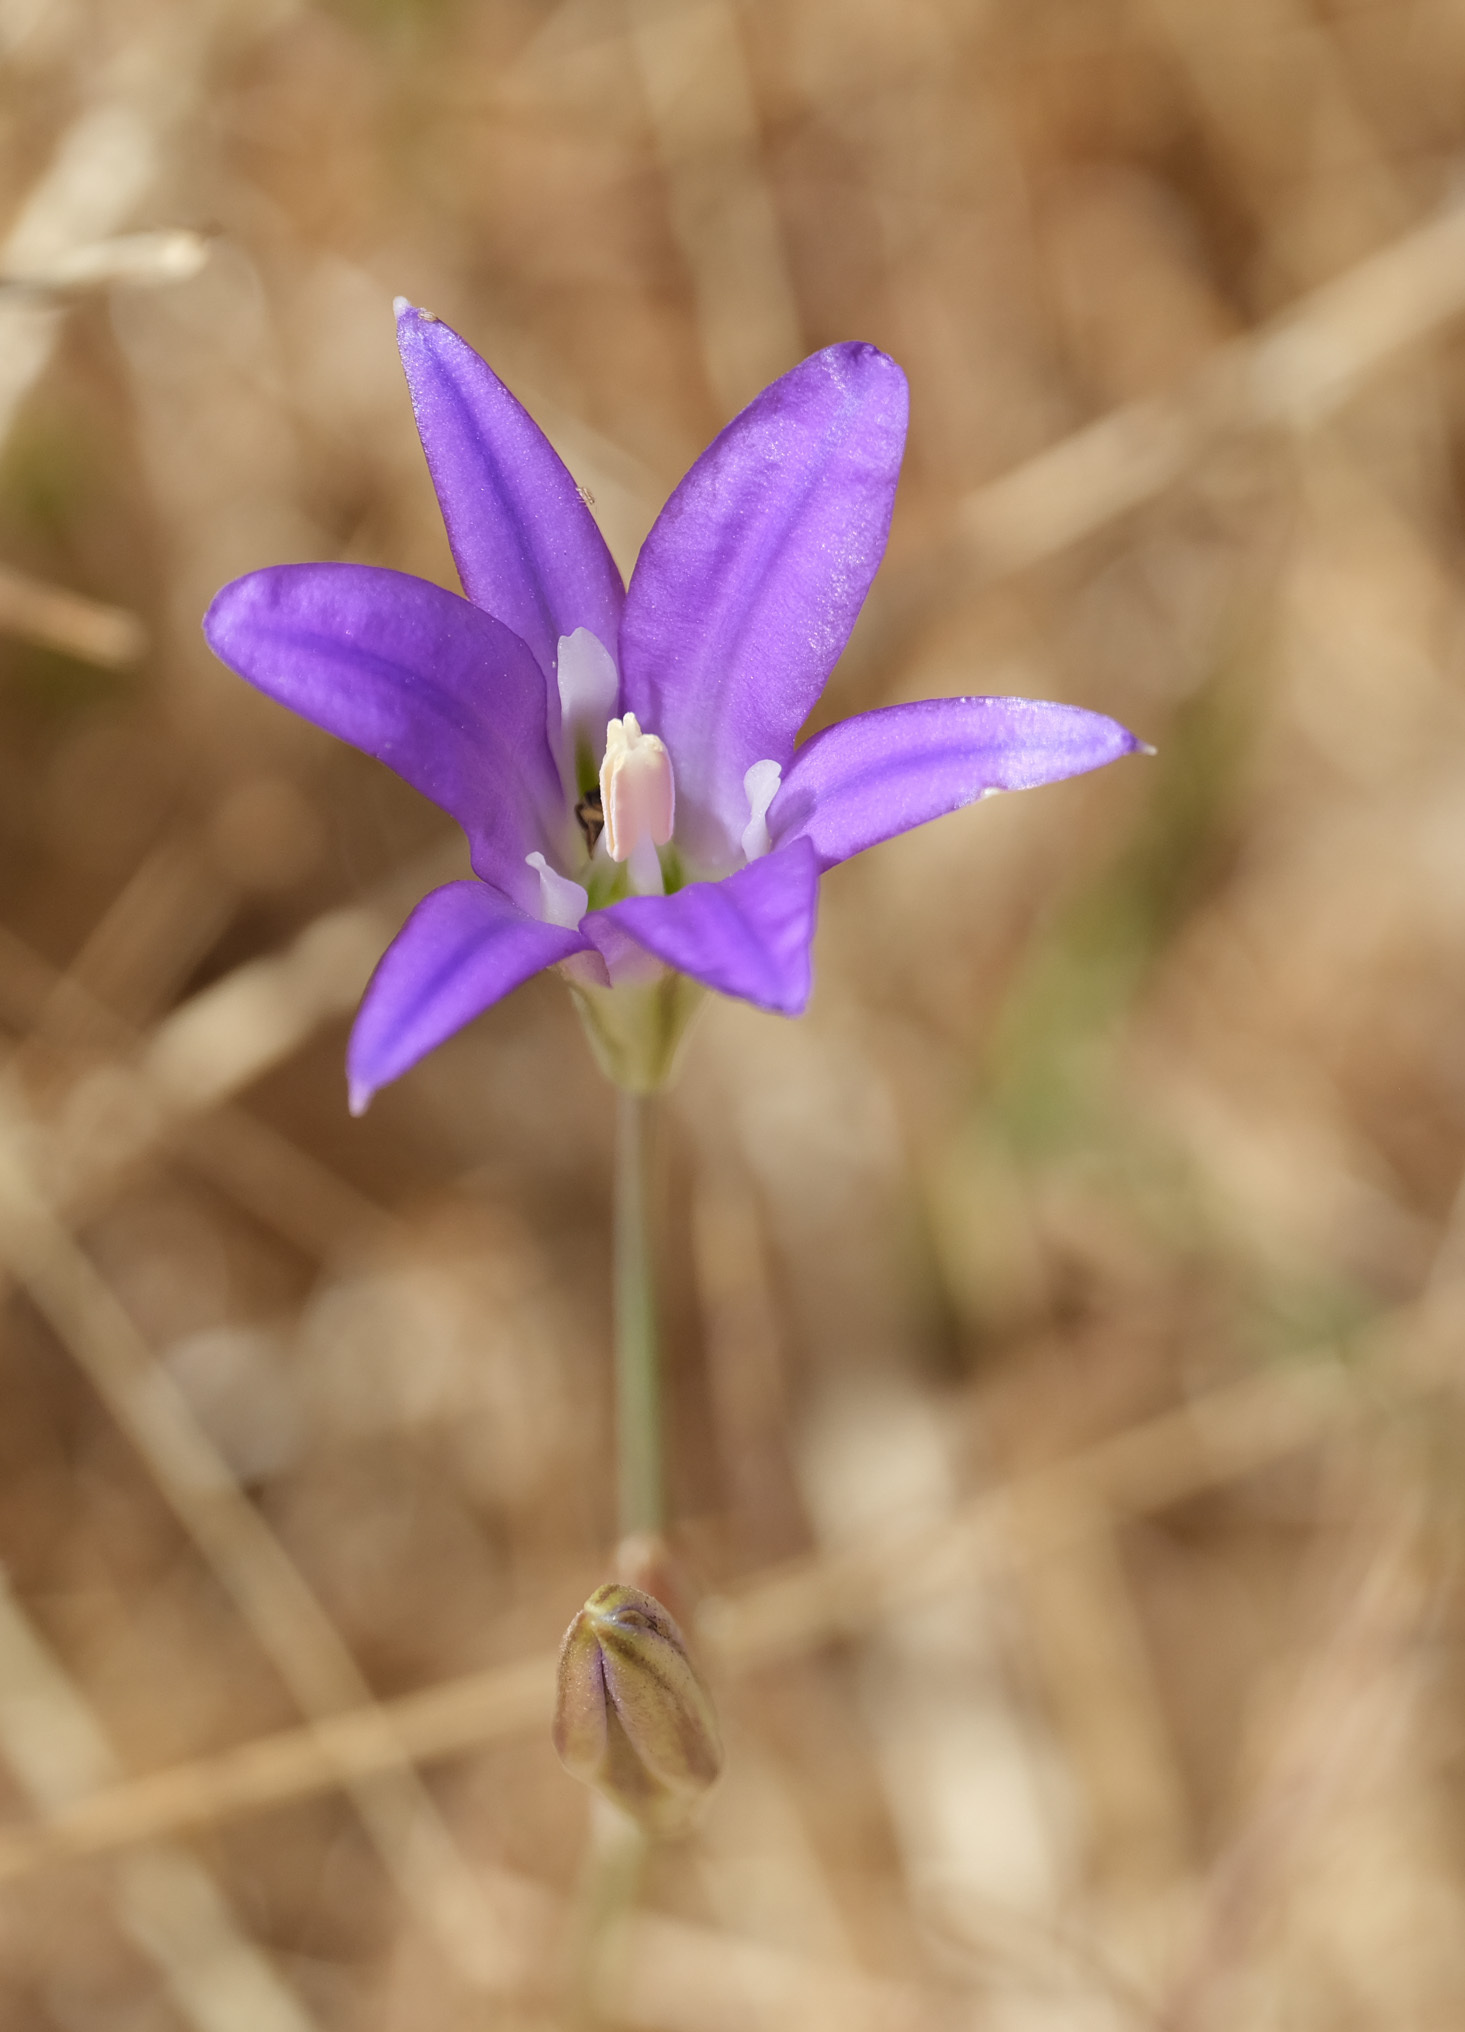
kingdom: Plantae
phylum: Tracheophyta
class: Liliopsida
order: Asparagales
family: Asparagaceae
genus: Brodiaea
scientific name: Brodiaea elegans
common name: Elegant cluster-lily
